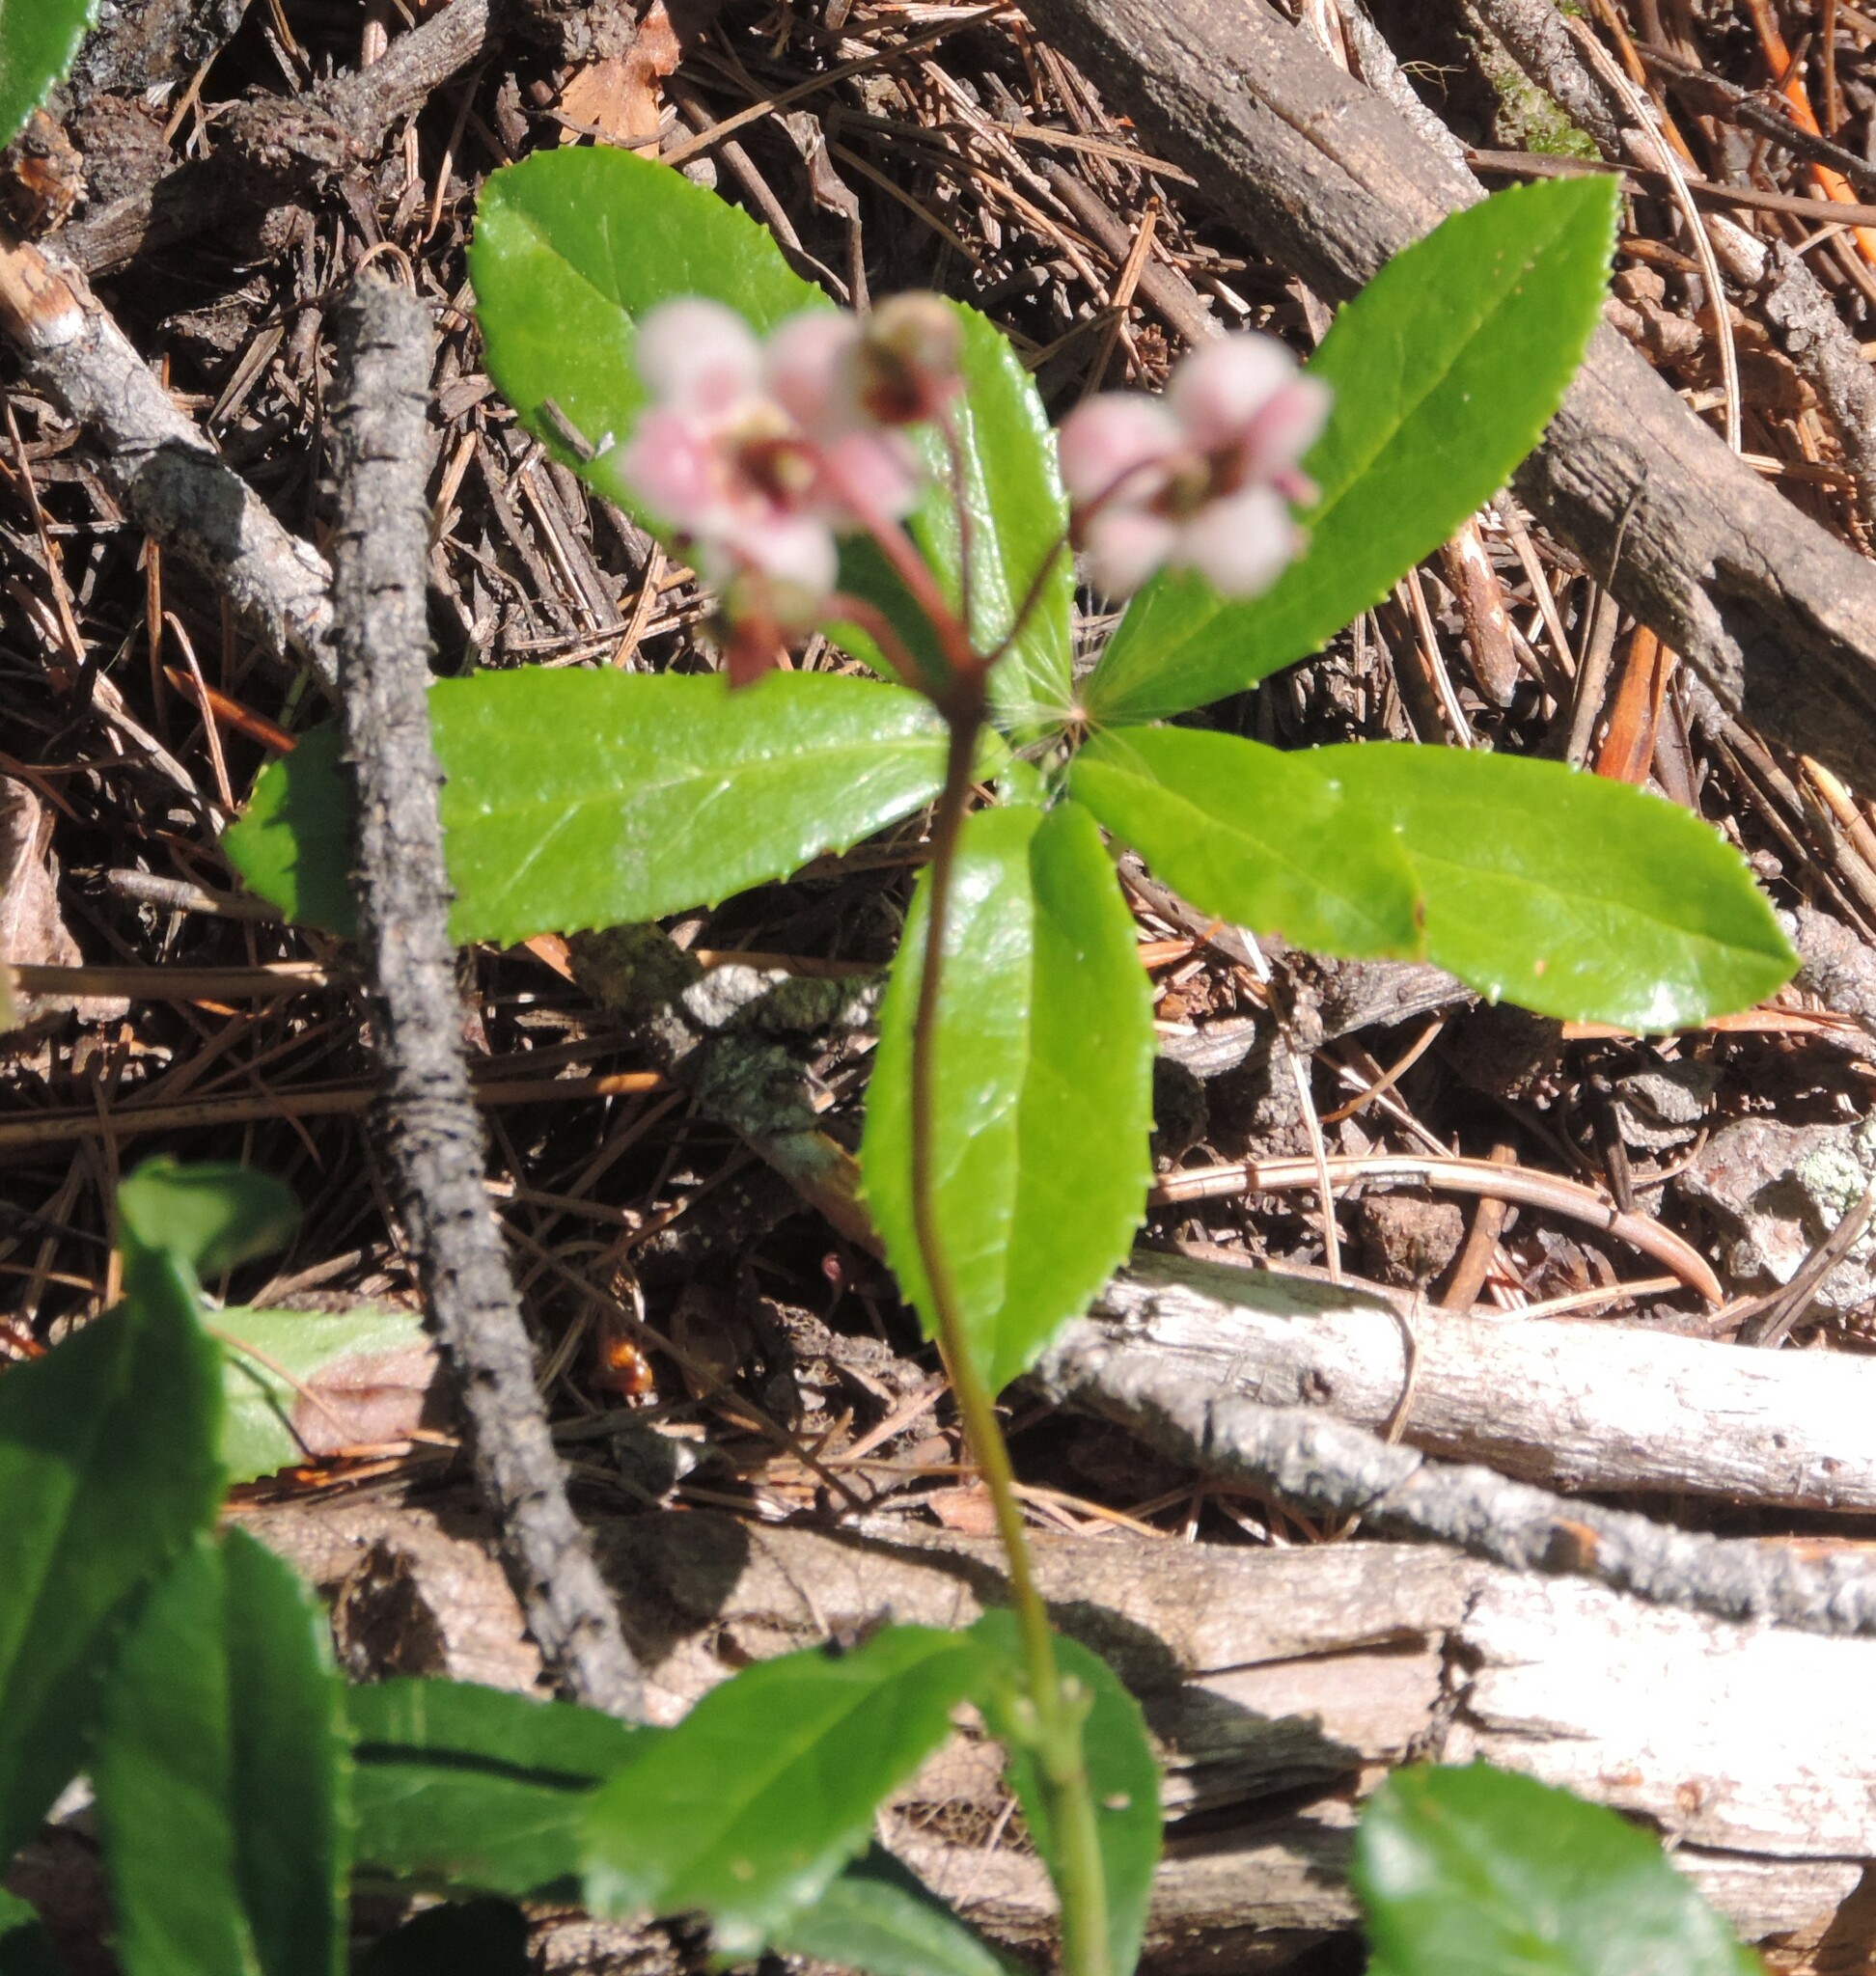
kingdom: Plantae
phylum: Tracheophyta
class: Magnoliopsida
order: Ericales
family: Ericaceae
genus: Chimaphila
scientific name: Chimaphila umbellata
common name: Pipsissewa
